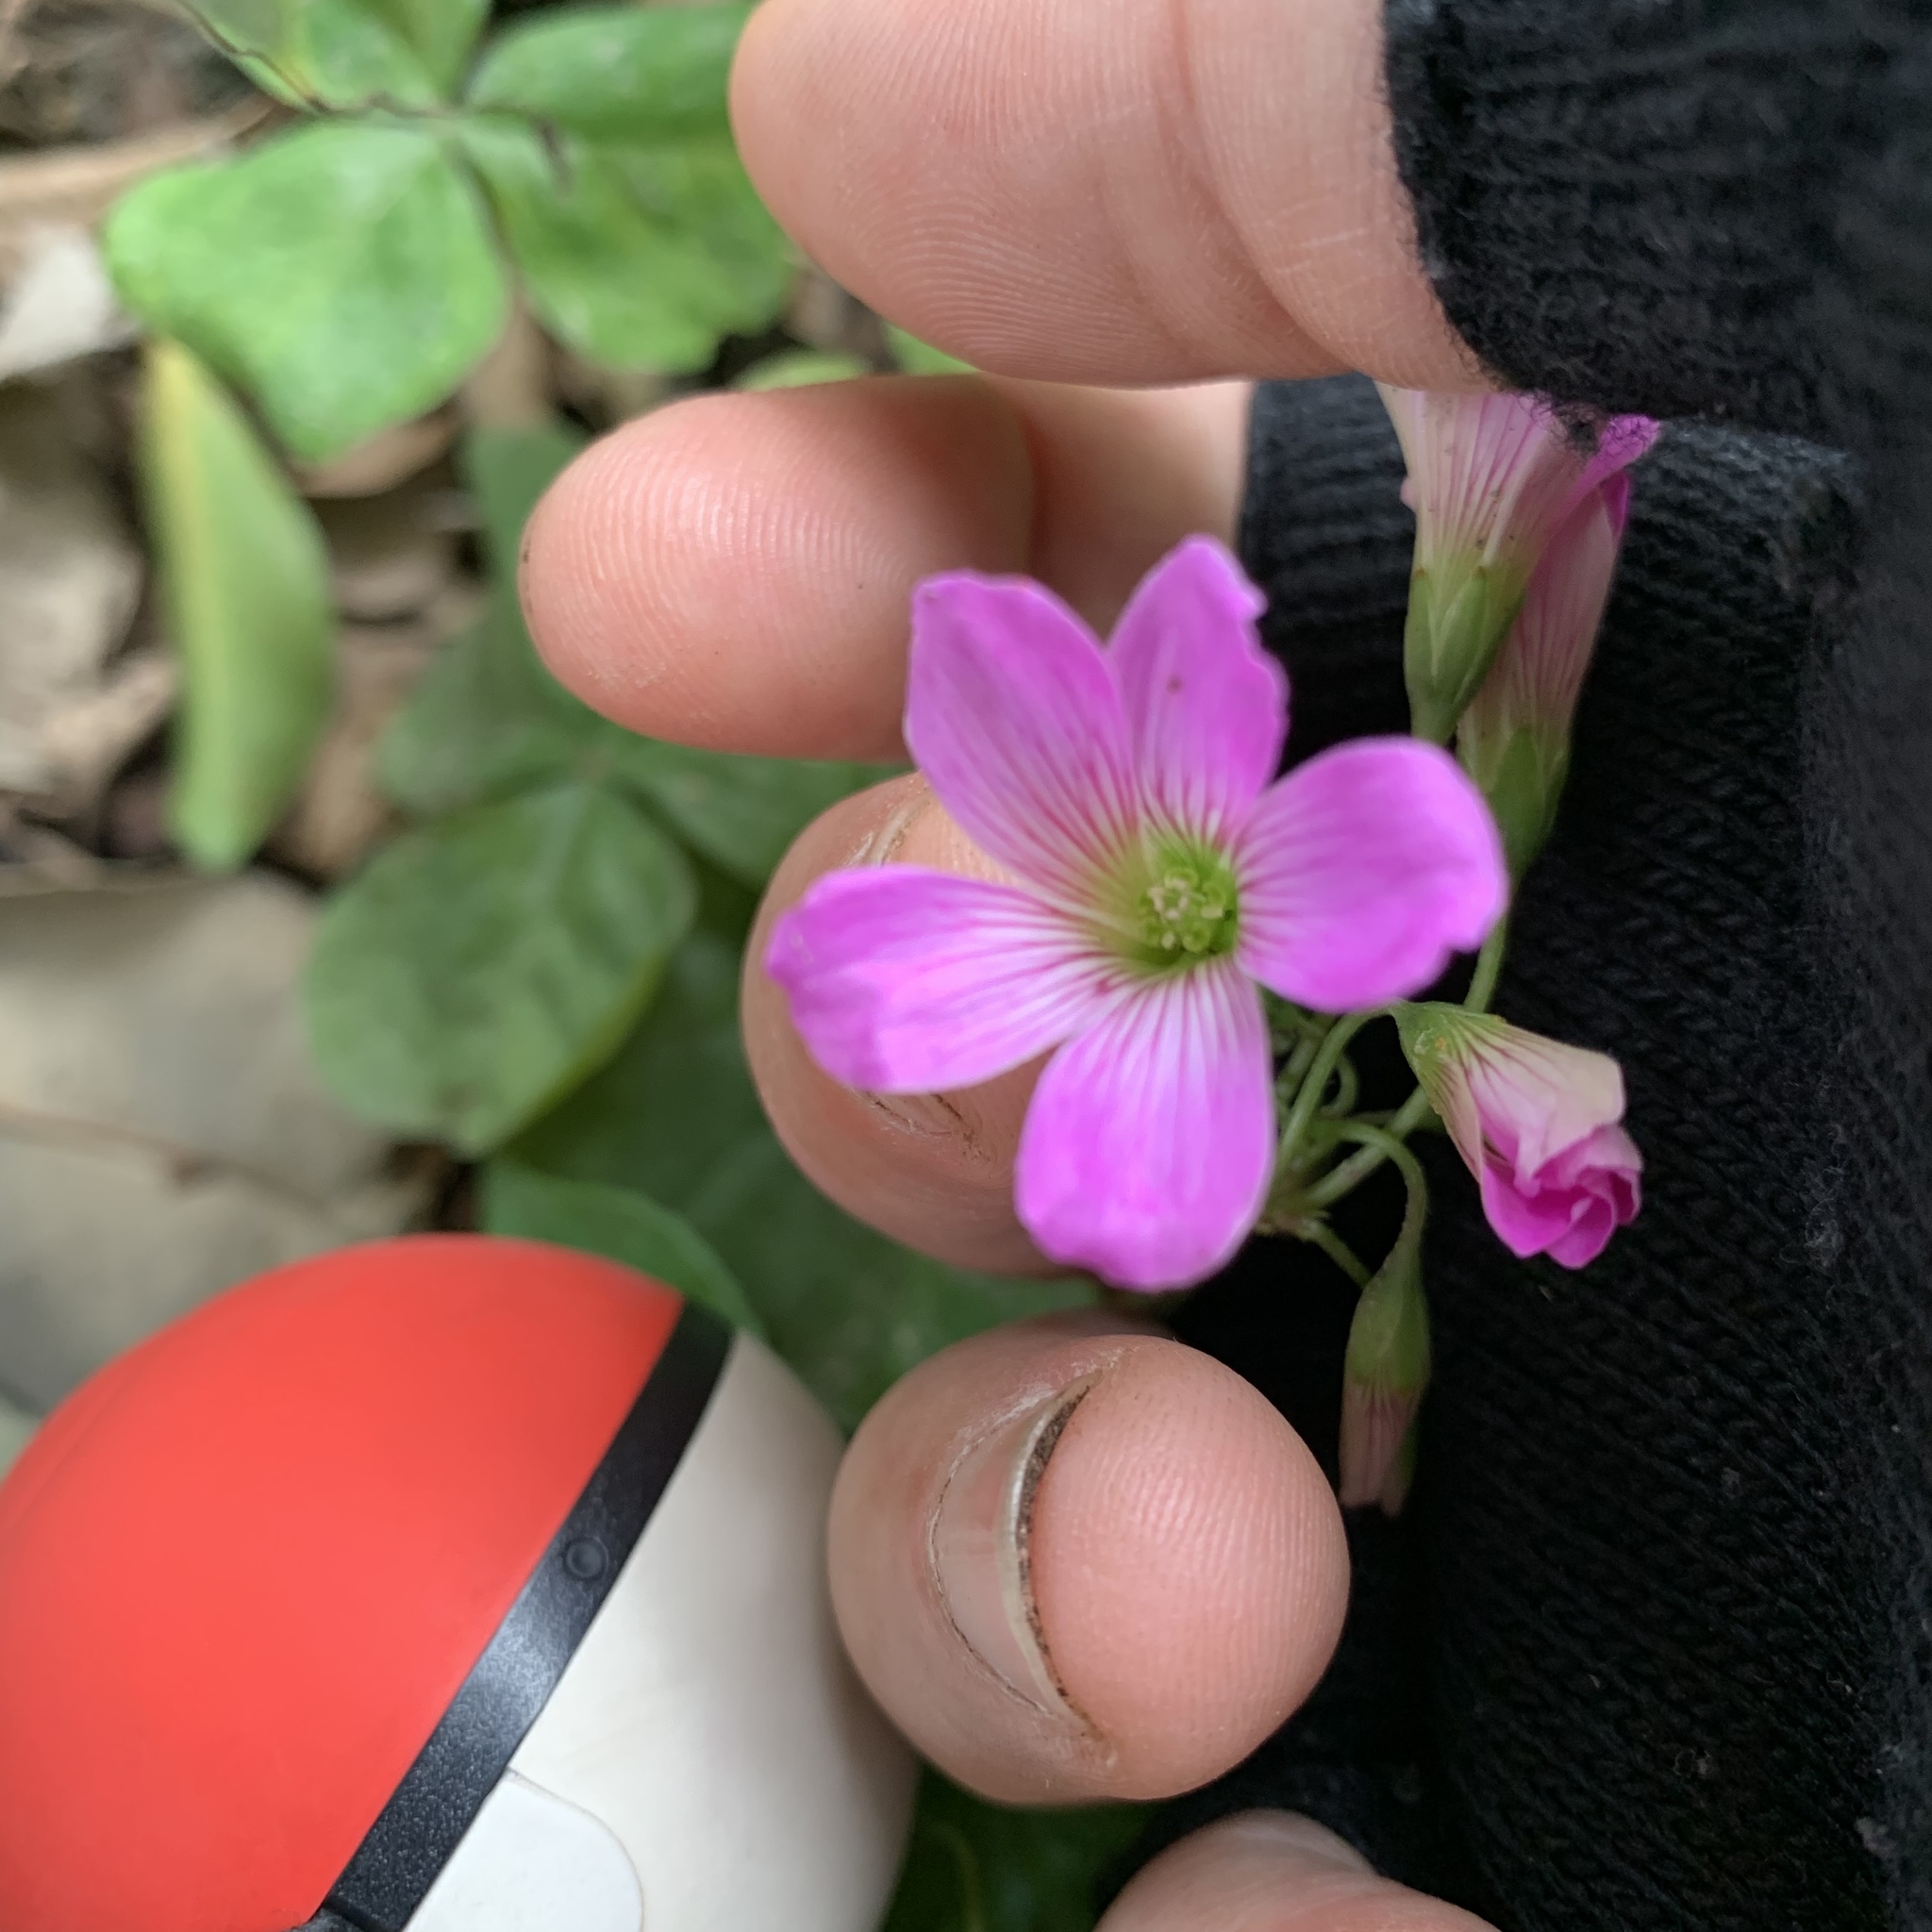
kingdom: Plantae
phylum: Tracheophyta
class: Magnoliopsida
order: Oxalidales
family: Oxalidaceae
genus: Oxalis
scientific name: Oxalis debilis
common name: Large-flowered pink-sorrel
